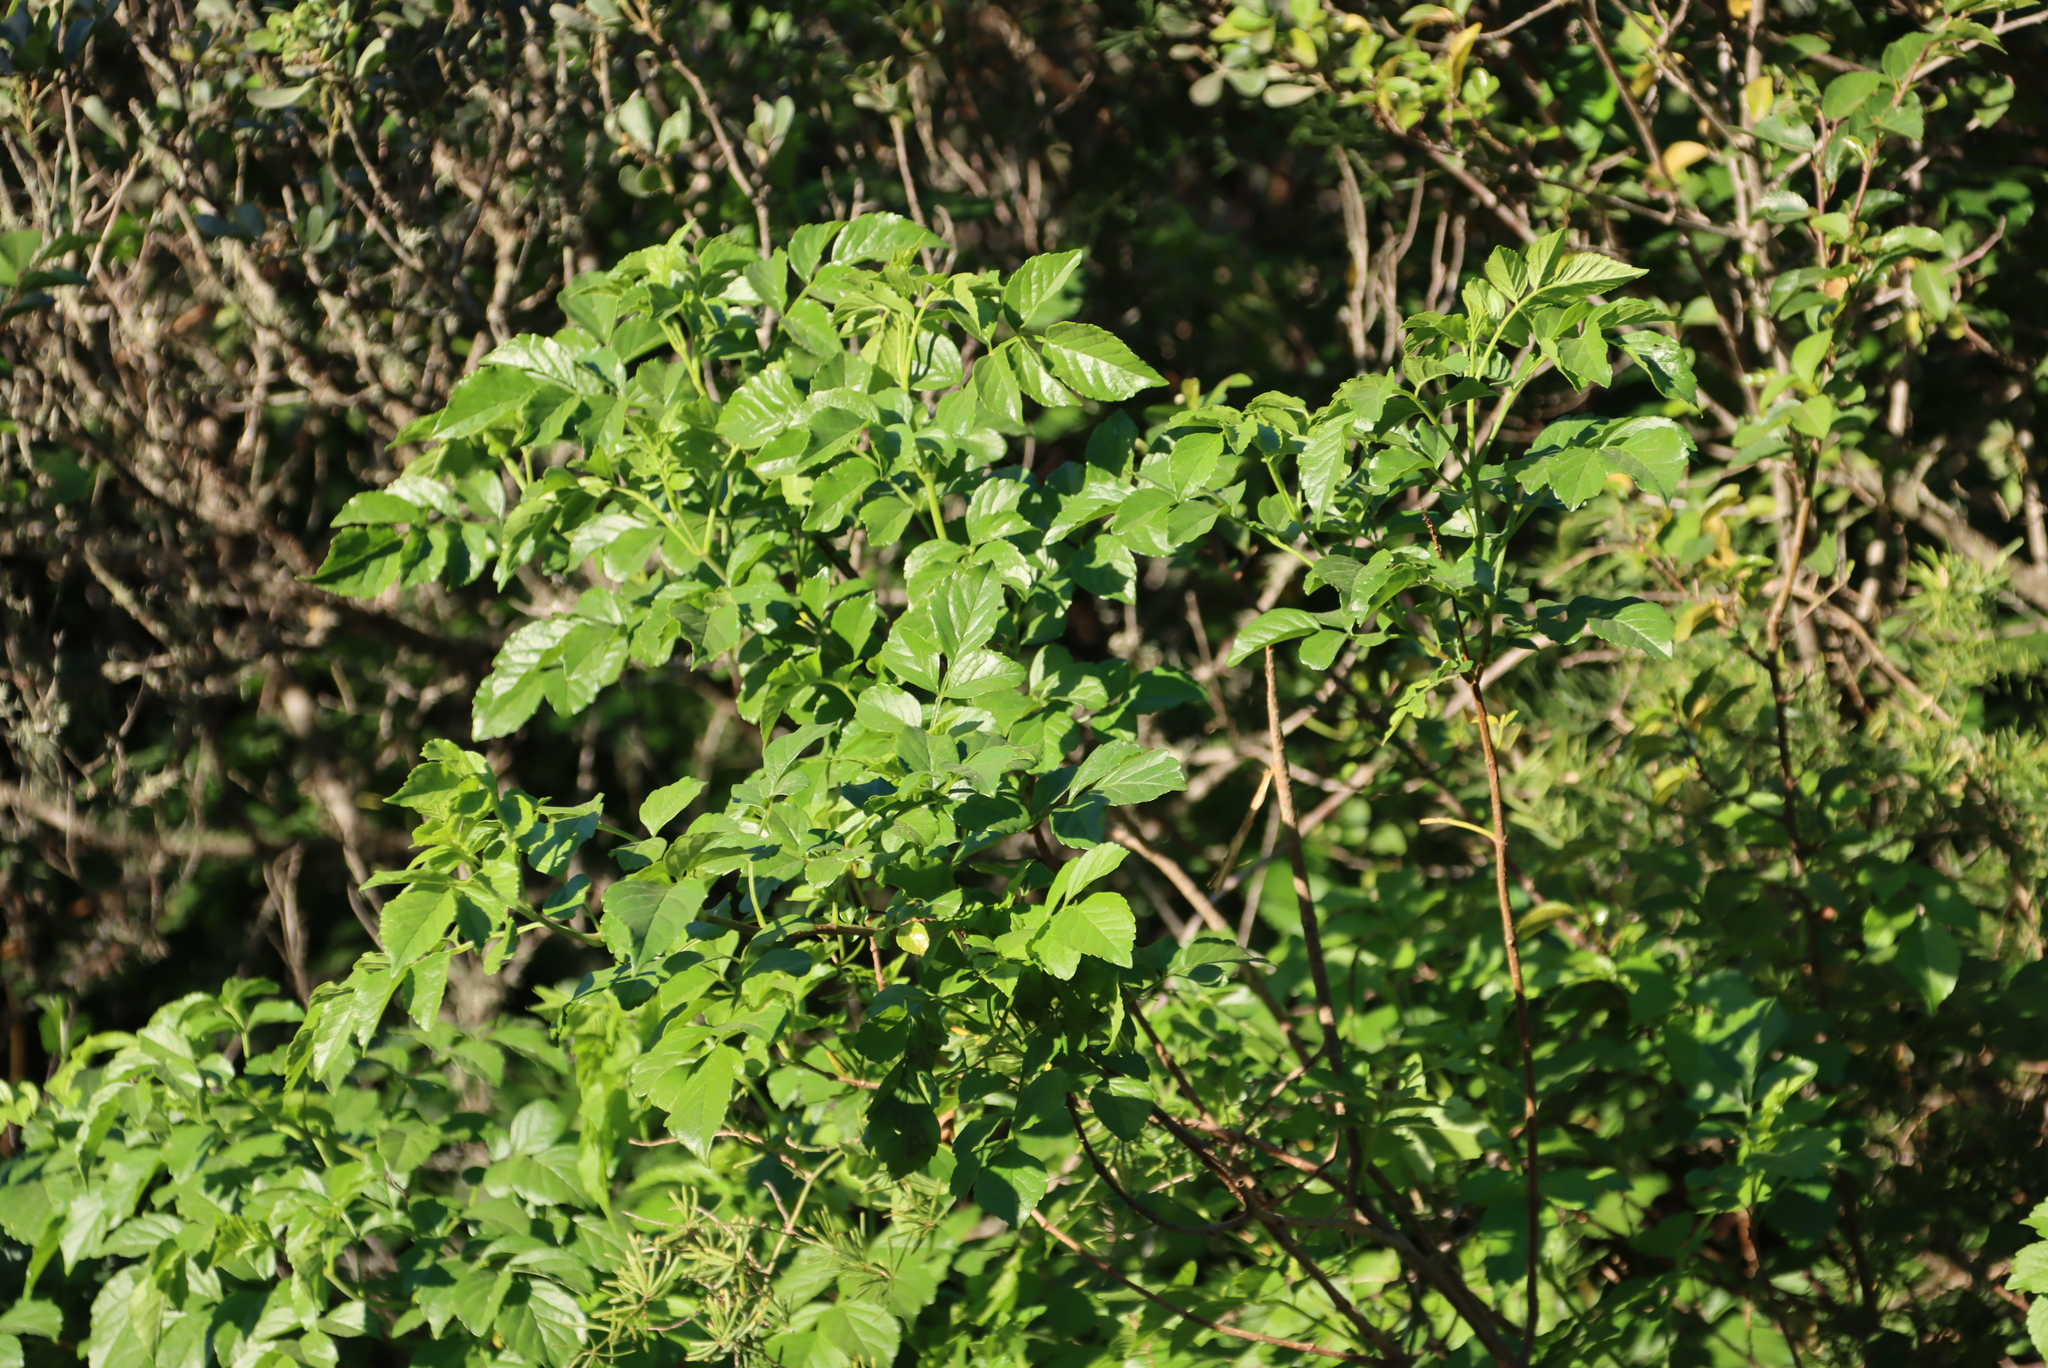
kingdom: Plantae
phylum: Tracheophyta
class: Magnoliopsida
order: Lamiales
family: Bignoniaceae
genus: Tecomaria
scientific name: Tecomaria capensis
